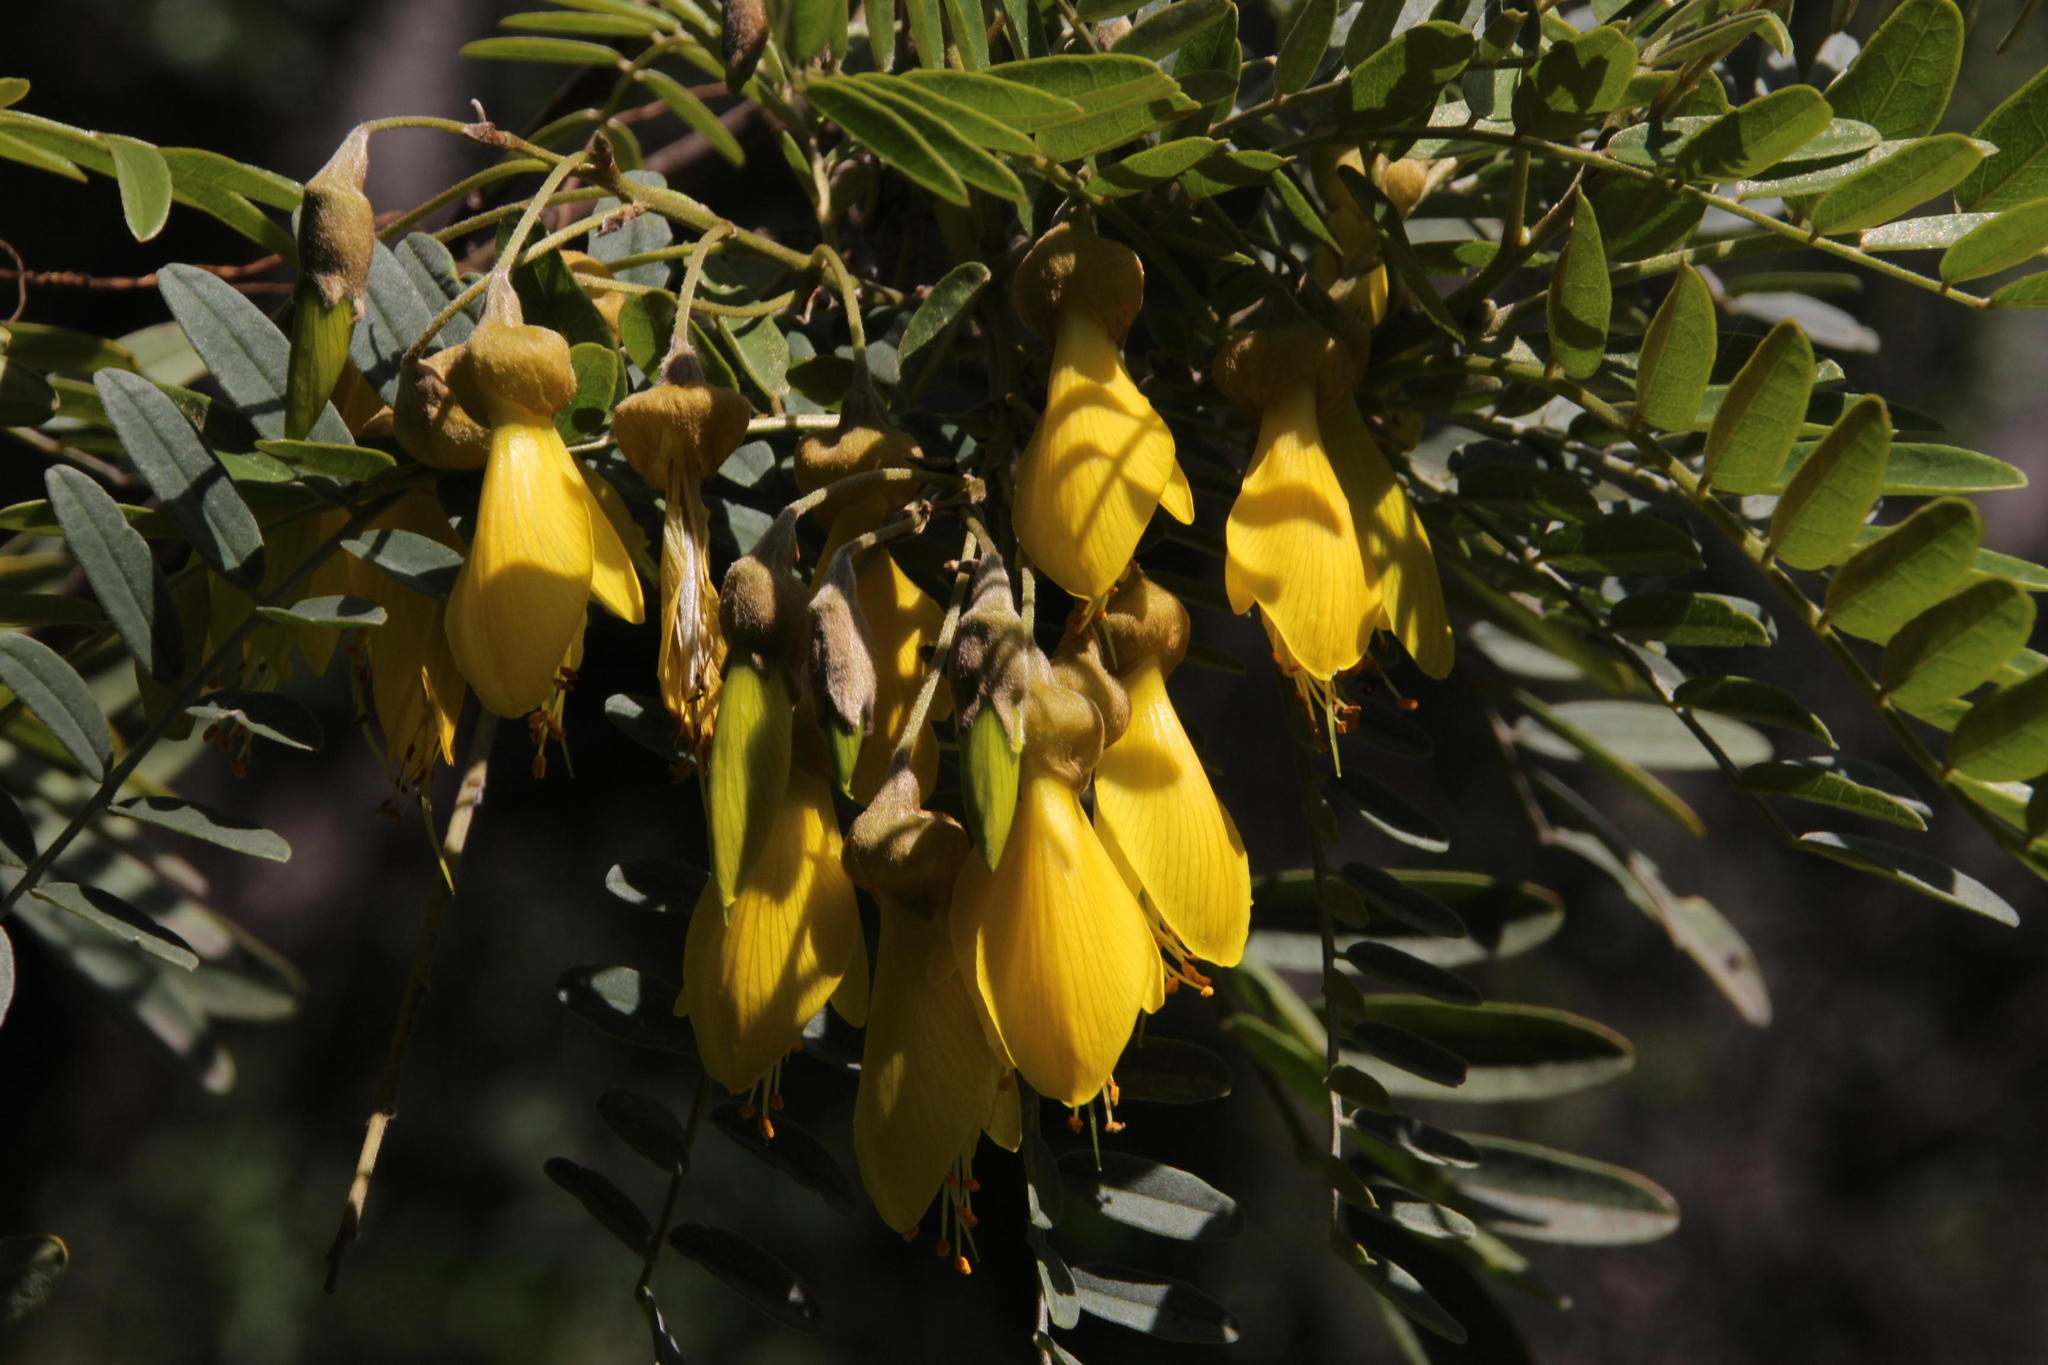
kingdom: Plantae
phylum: Tracheophyta
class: Magnoliopsida
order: Fabales
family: Fabaceae
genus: Sophora
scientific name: Sophora macrocarpa
